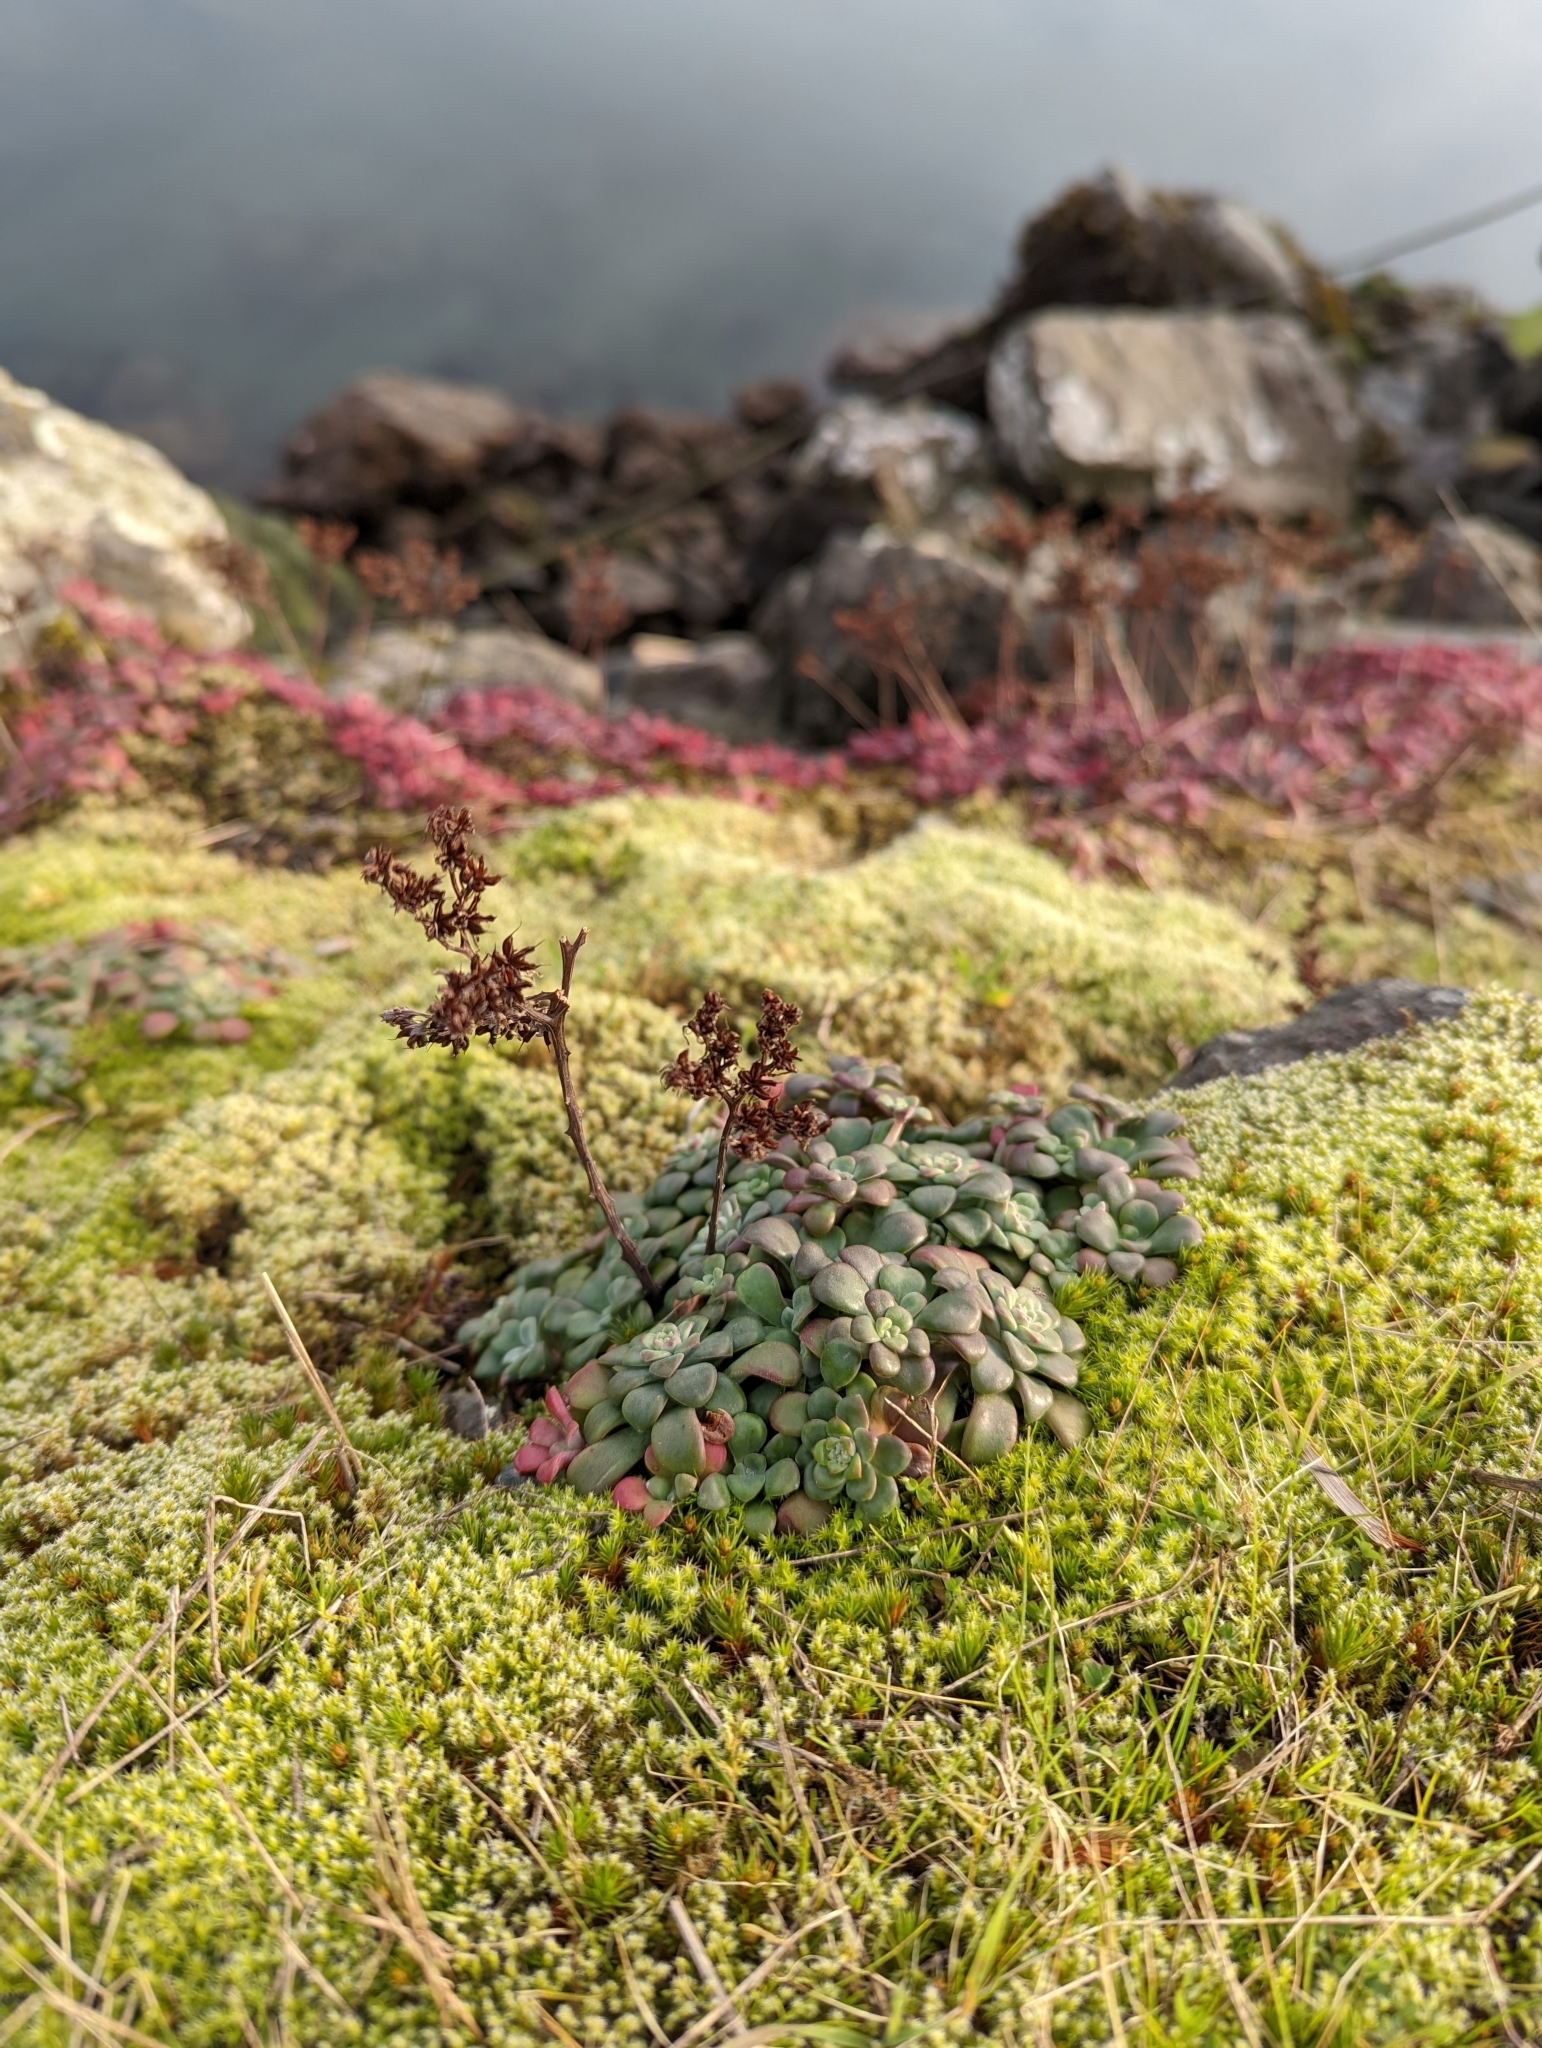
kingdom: Plantae
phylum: Tracheophyta
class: Magnoliopsida
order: Saxifragales
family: Crassulaceae
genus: Sedum
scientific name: Sedum spathulifolium
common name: Colorado stonecrop
